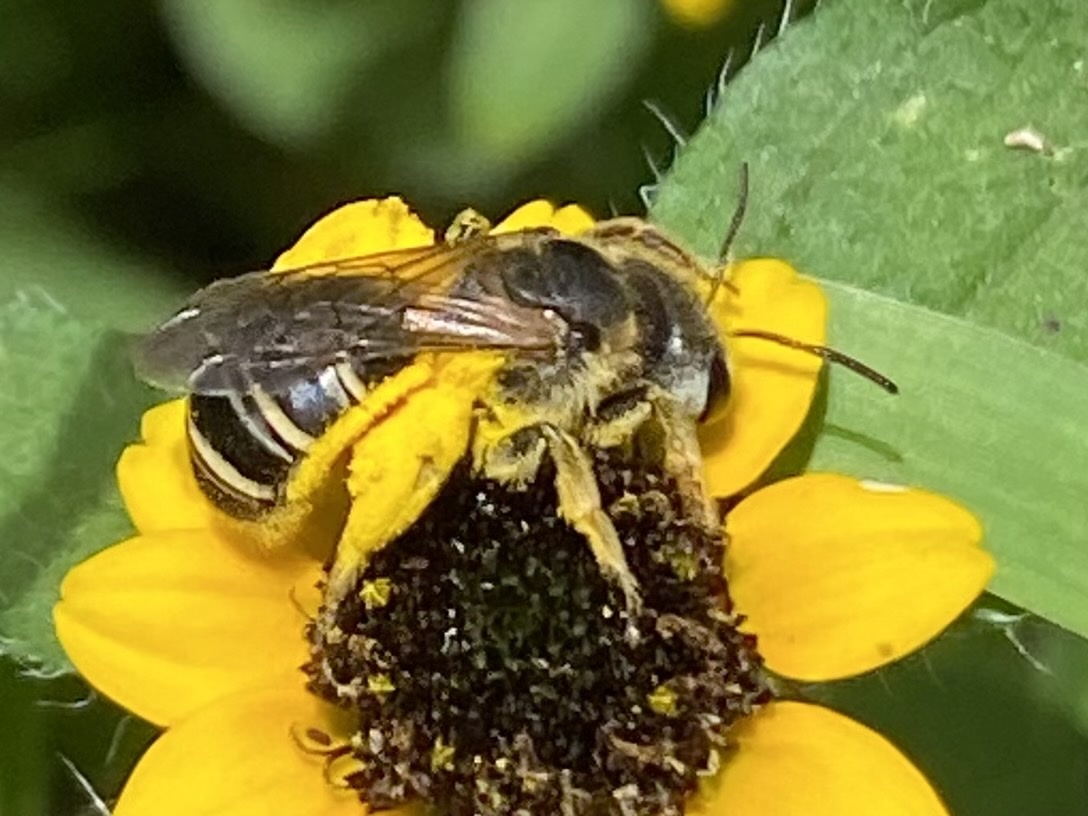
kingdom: Animalia
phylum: Arthropoda
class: Insecta
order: Hymenoptera
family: Halictidae
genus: Halictus
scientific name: Halictus ligatus
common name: Ligated furrow bee
